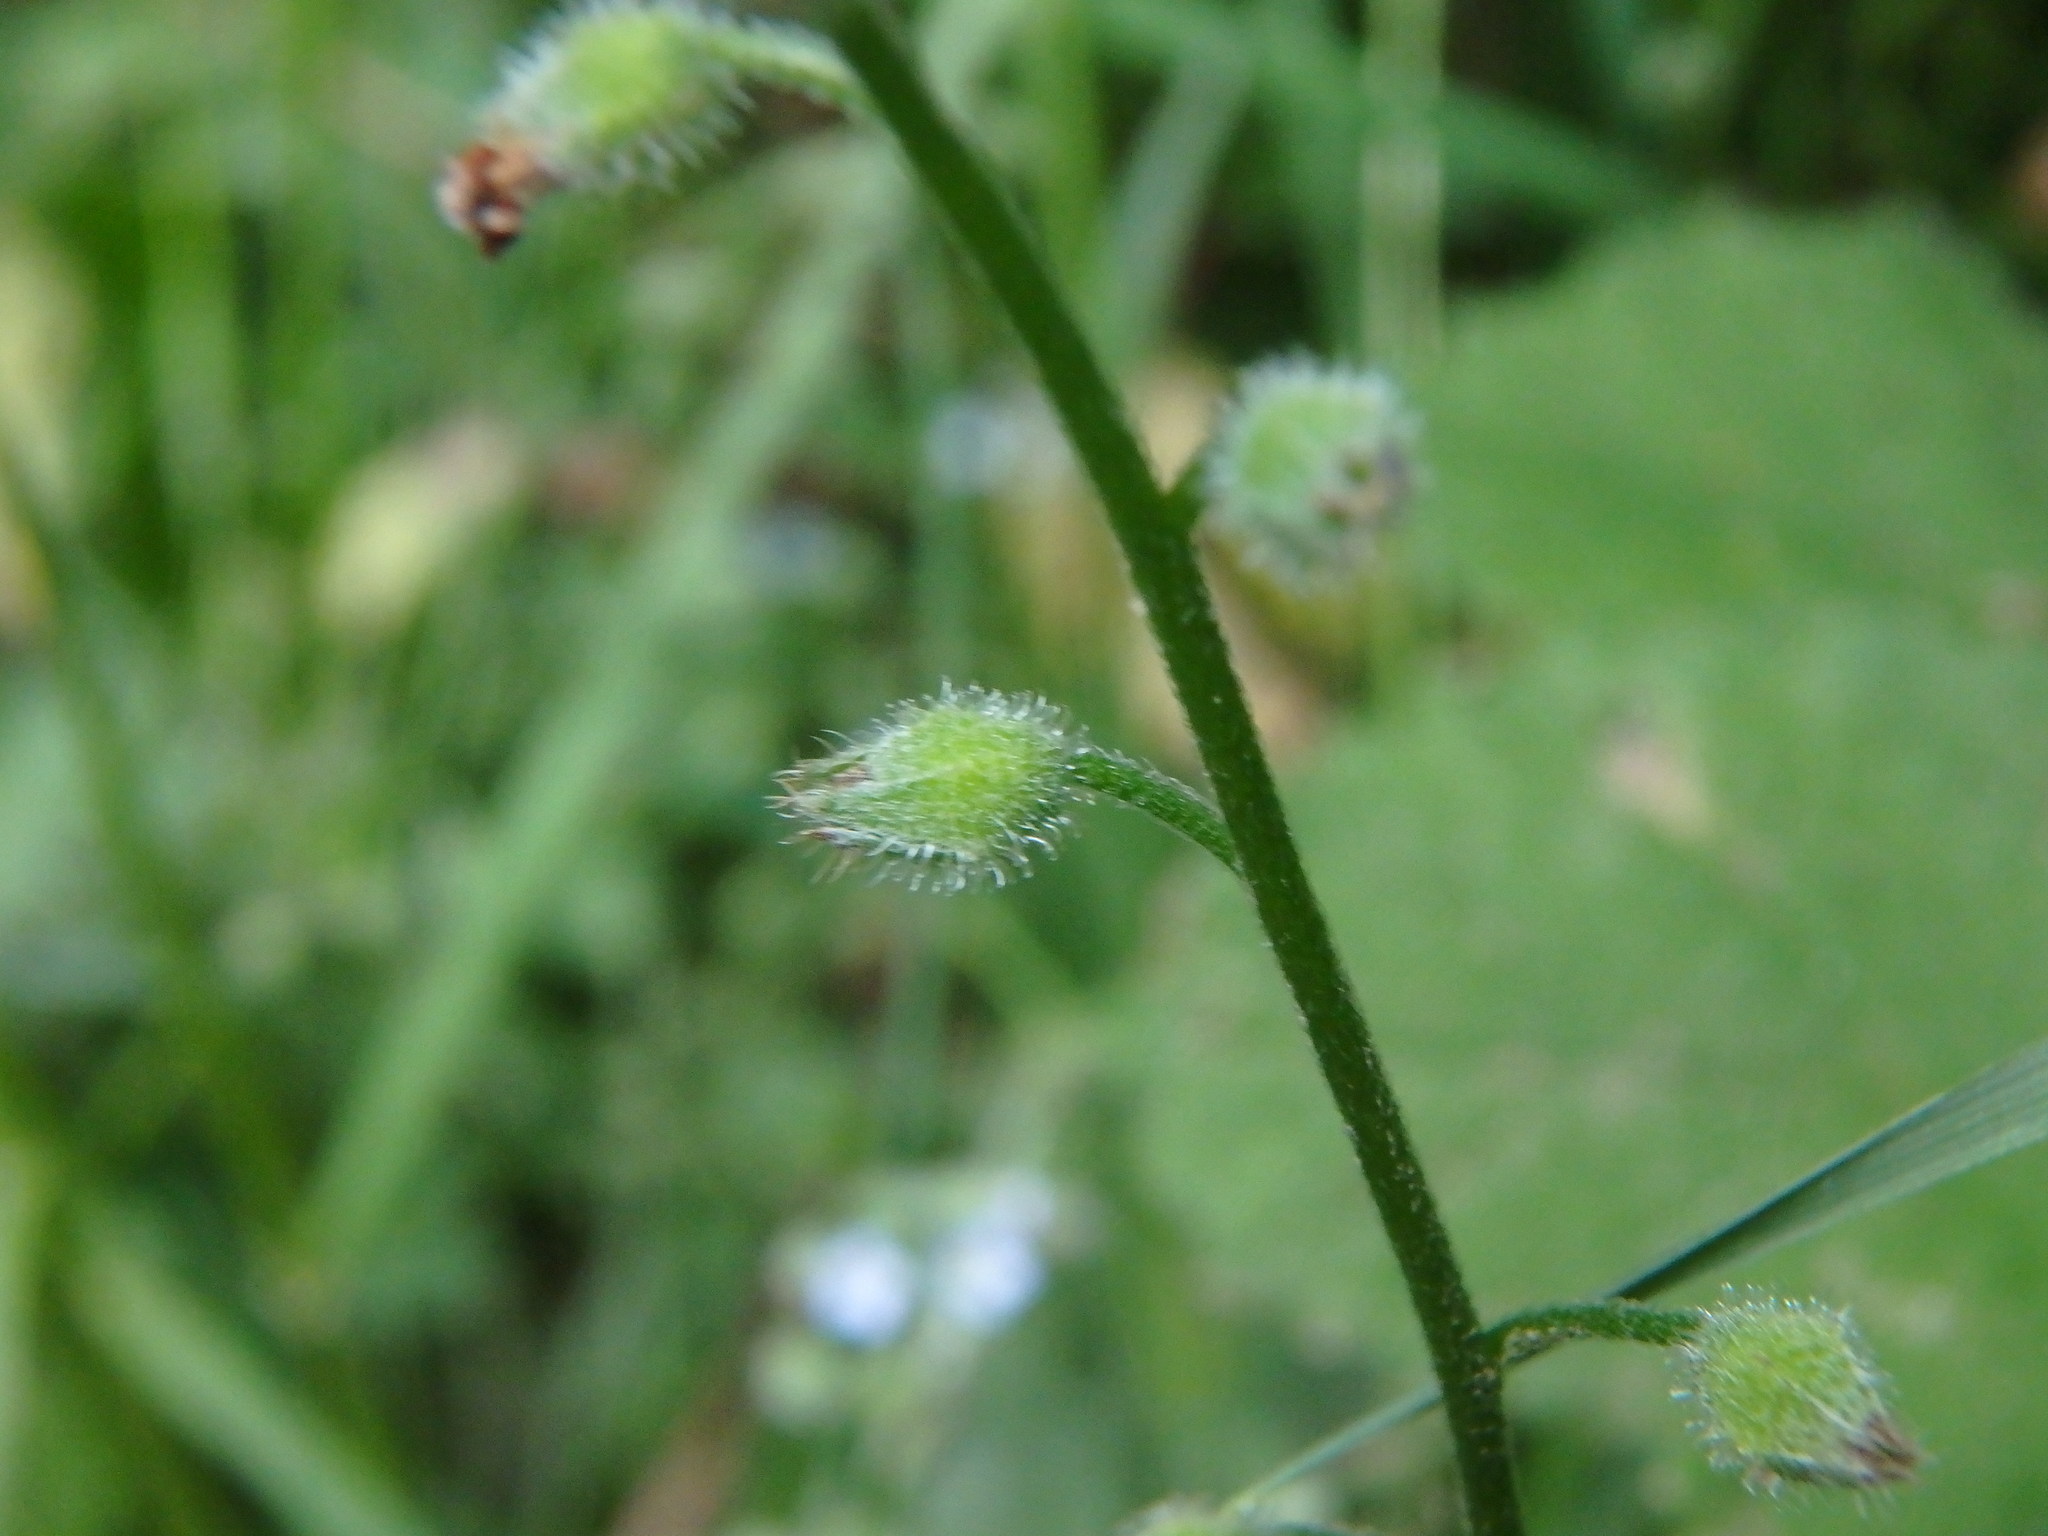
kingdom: Plantae
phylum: Tracheophyta
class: Magnoliopsida
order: Boraginales
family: Boraginaceae
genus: Myosotis
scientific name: Myosotis arvensis
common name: Field forget-me-not
